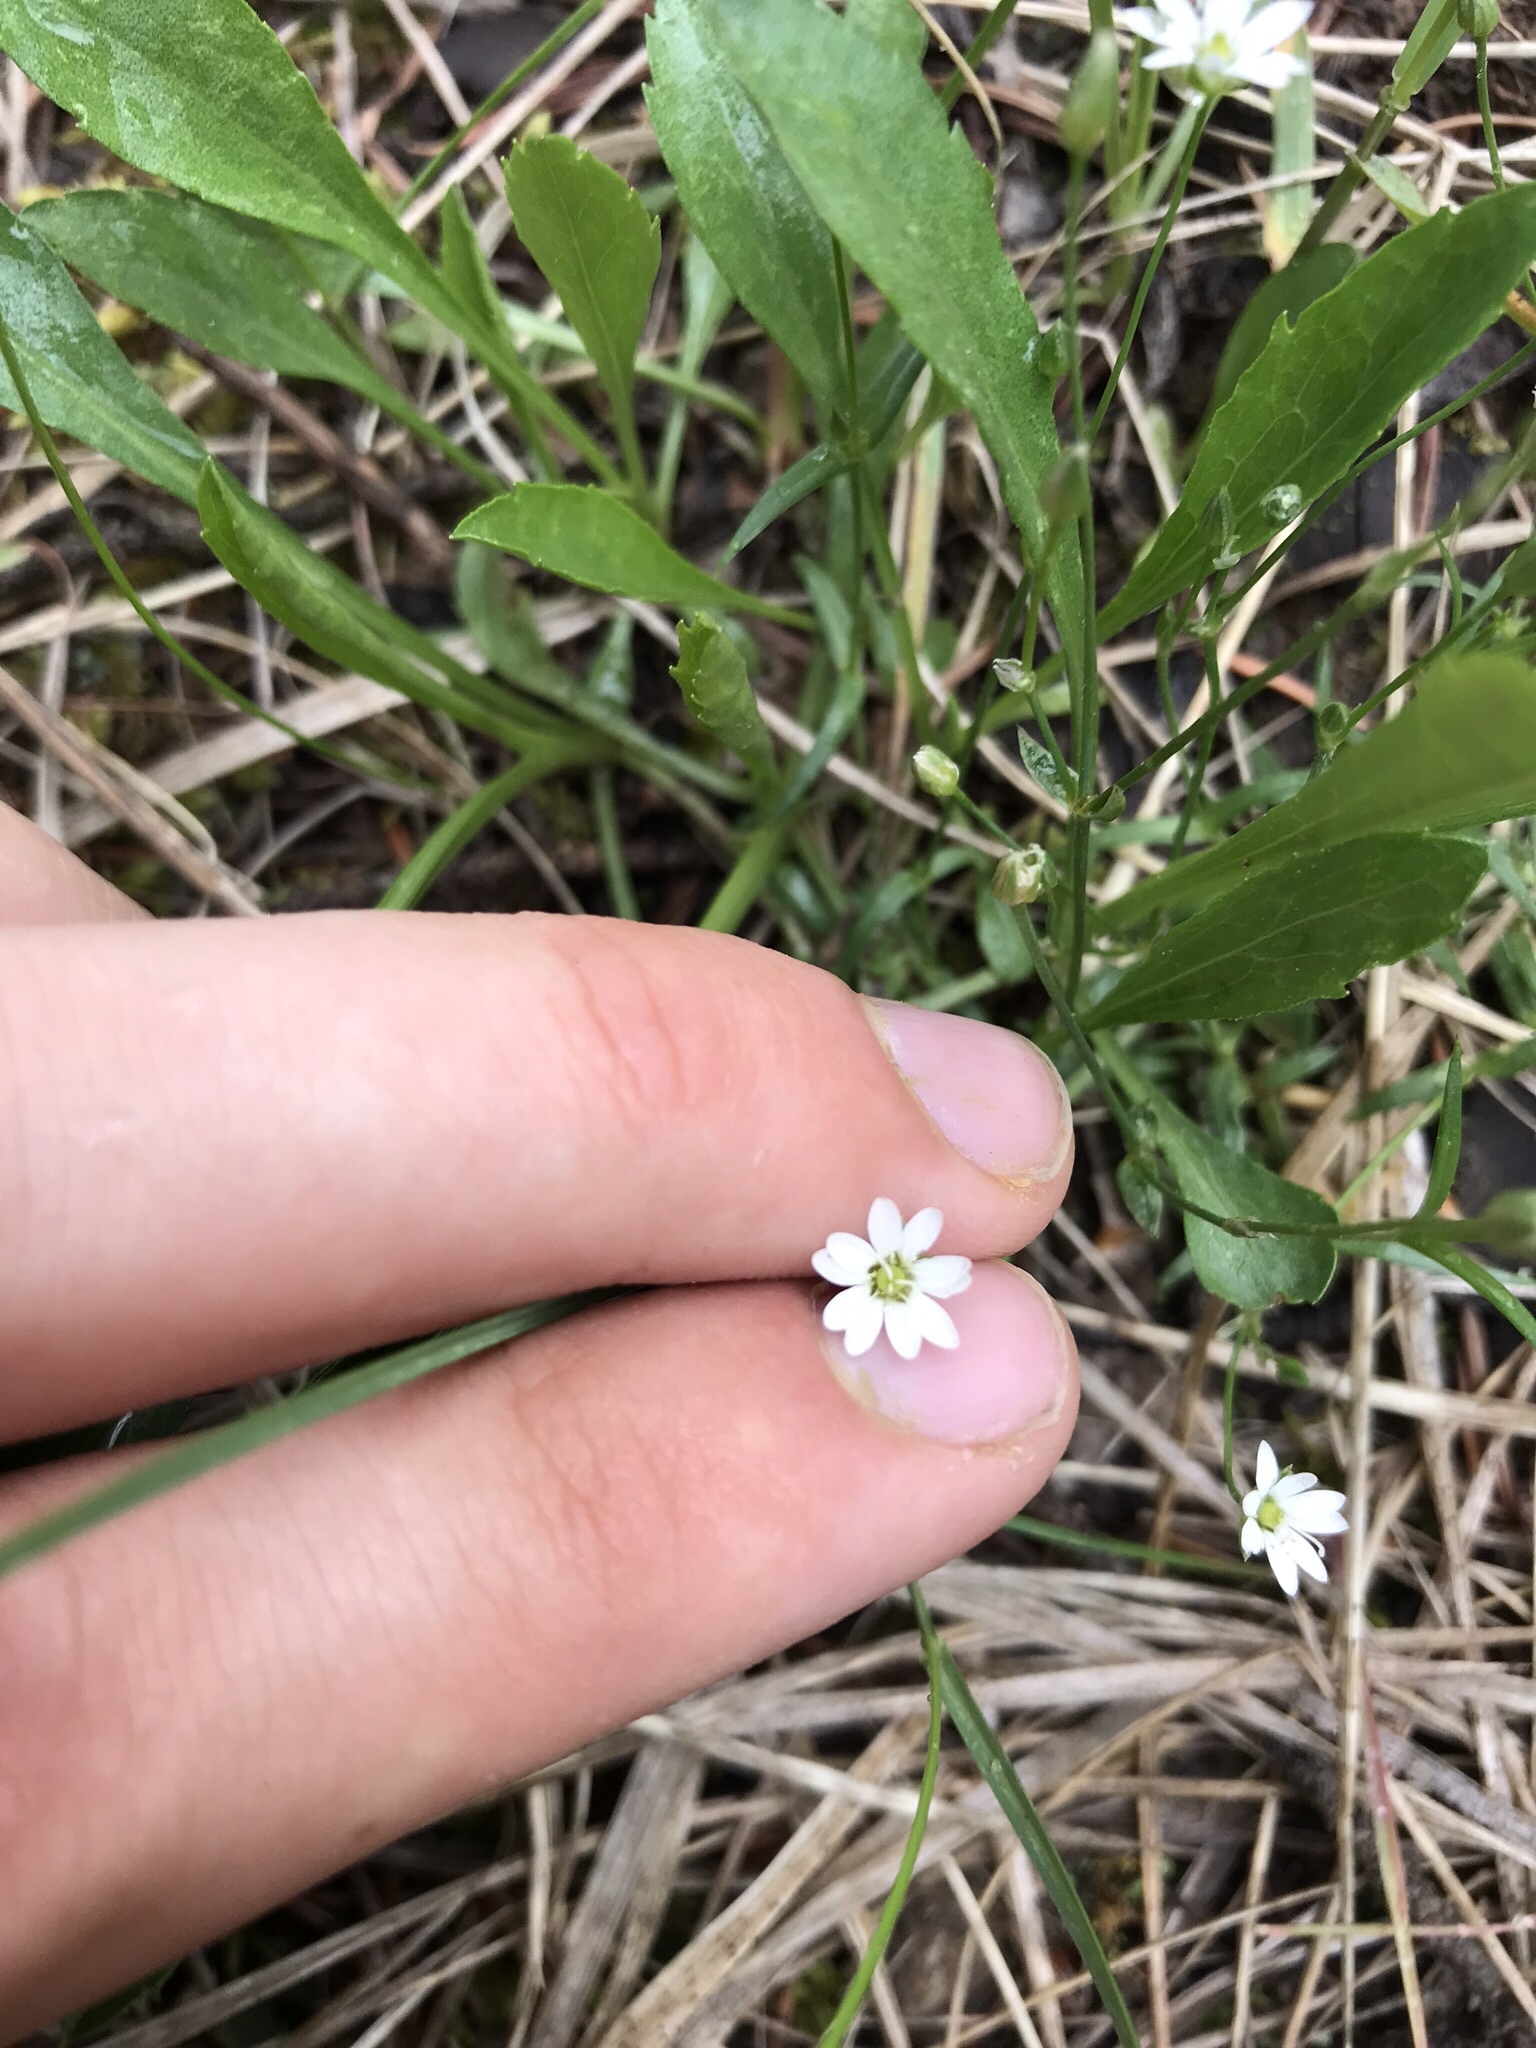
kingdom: Plantae
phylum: Tracheophyta
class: Magnoliopsida
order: Caryophyllales
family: Caryophyllaceae
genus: Moehringia
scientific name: Moehringia lateriflora
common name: Blunt-leaved sandwort
